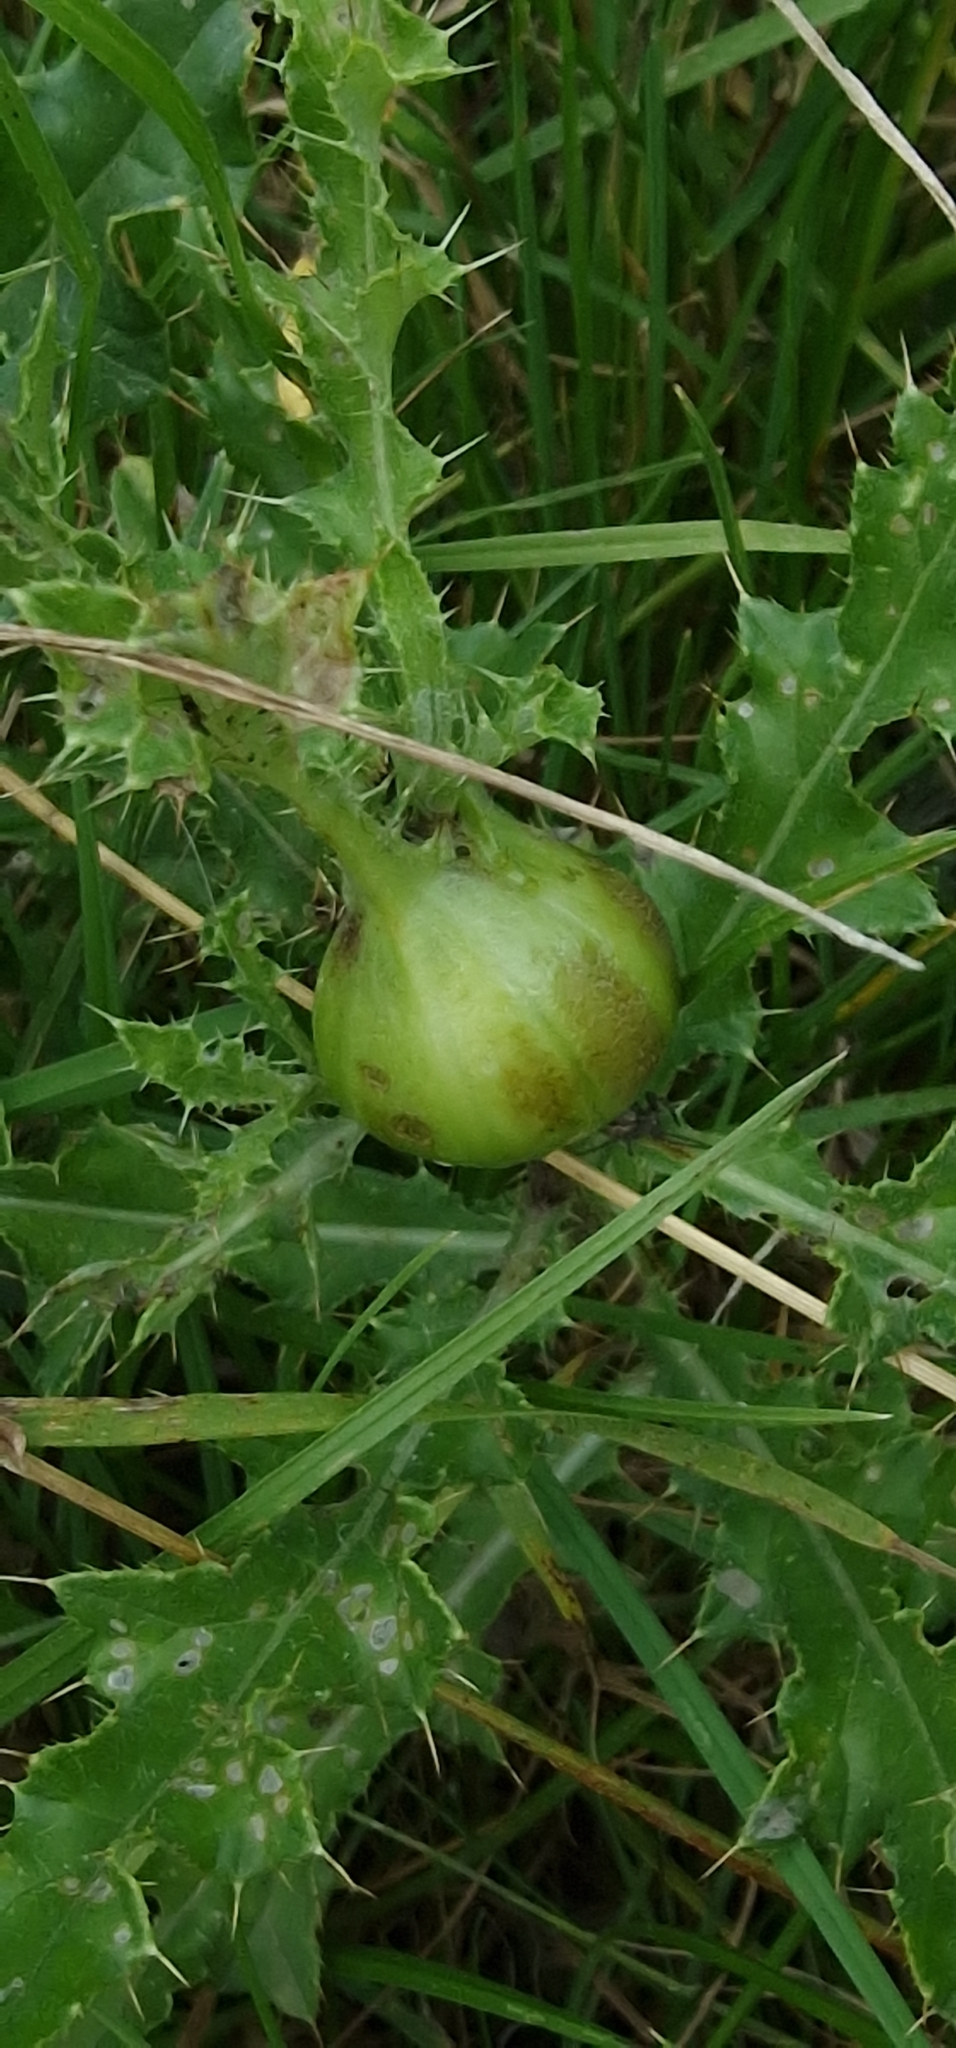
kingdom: Animalia
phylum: Arthropoda
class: Insecta
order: Diptera
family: Tephritidae
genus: Urophora
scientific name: Urophora cardui
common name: Fruit fly
